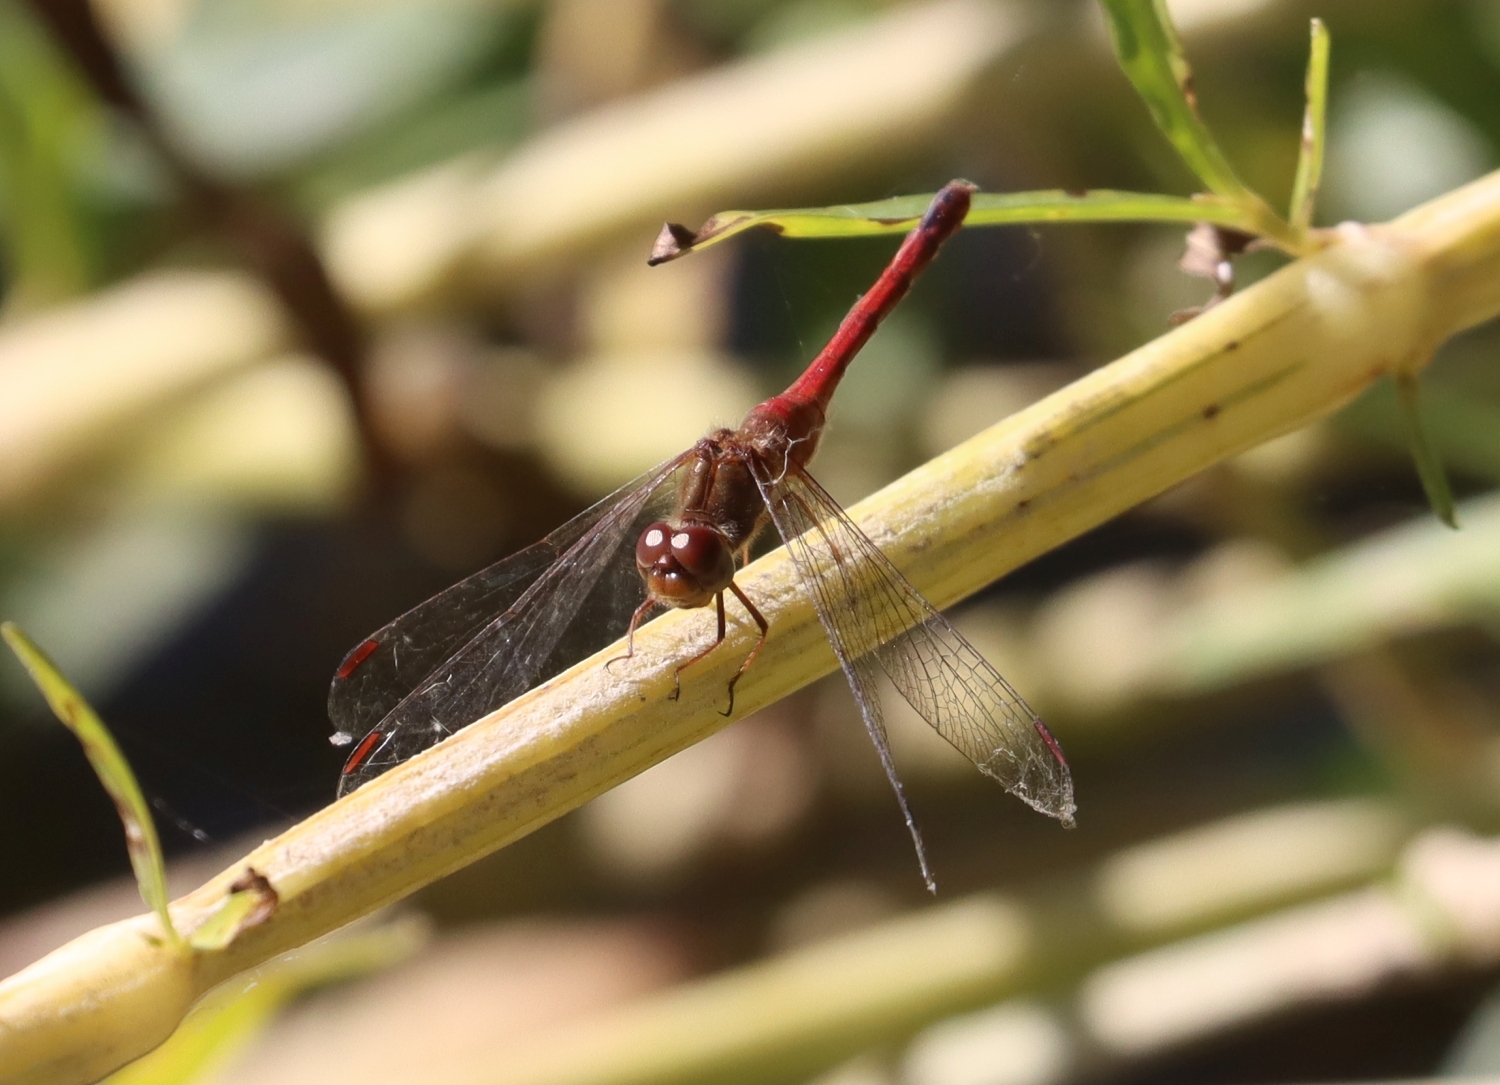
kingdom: Animalia
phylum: Arthropoda
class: Insecta
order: Odonata
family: Libellulidae
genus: Sympetrum
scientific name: Sympetrum vicinum
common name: Autumn meadowhawk
